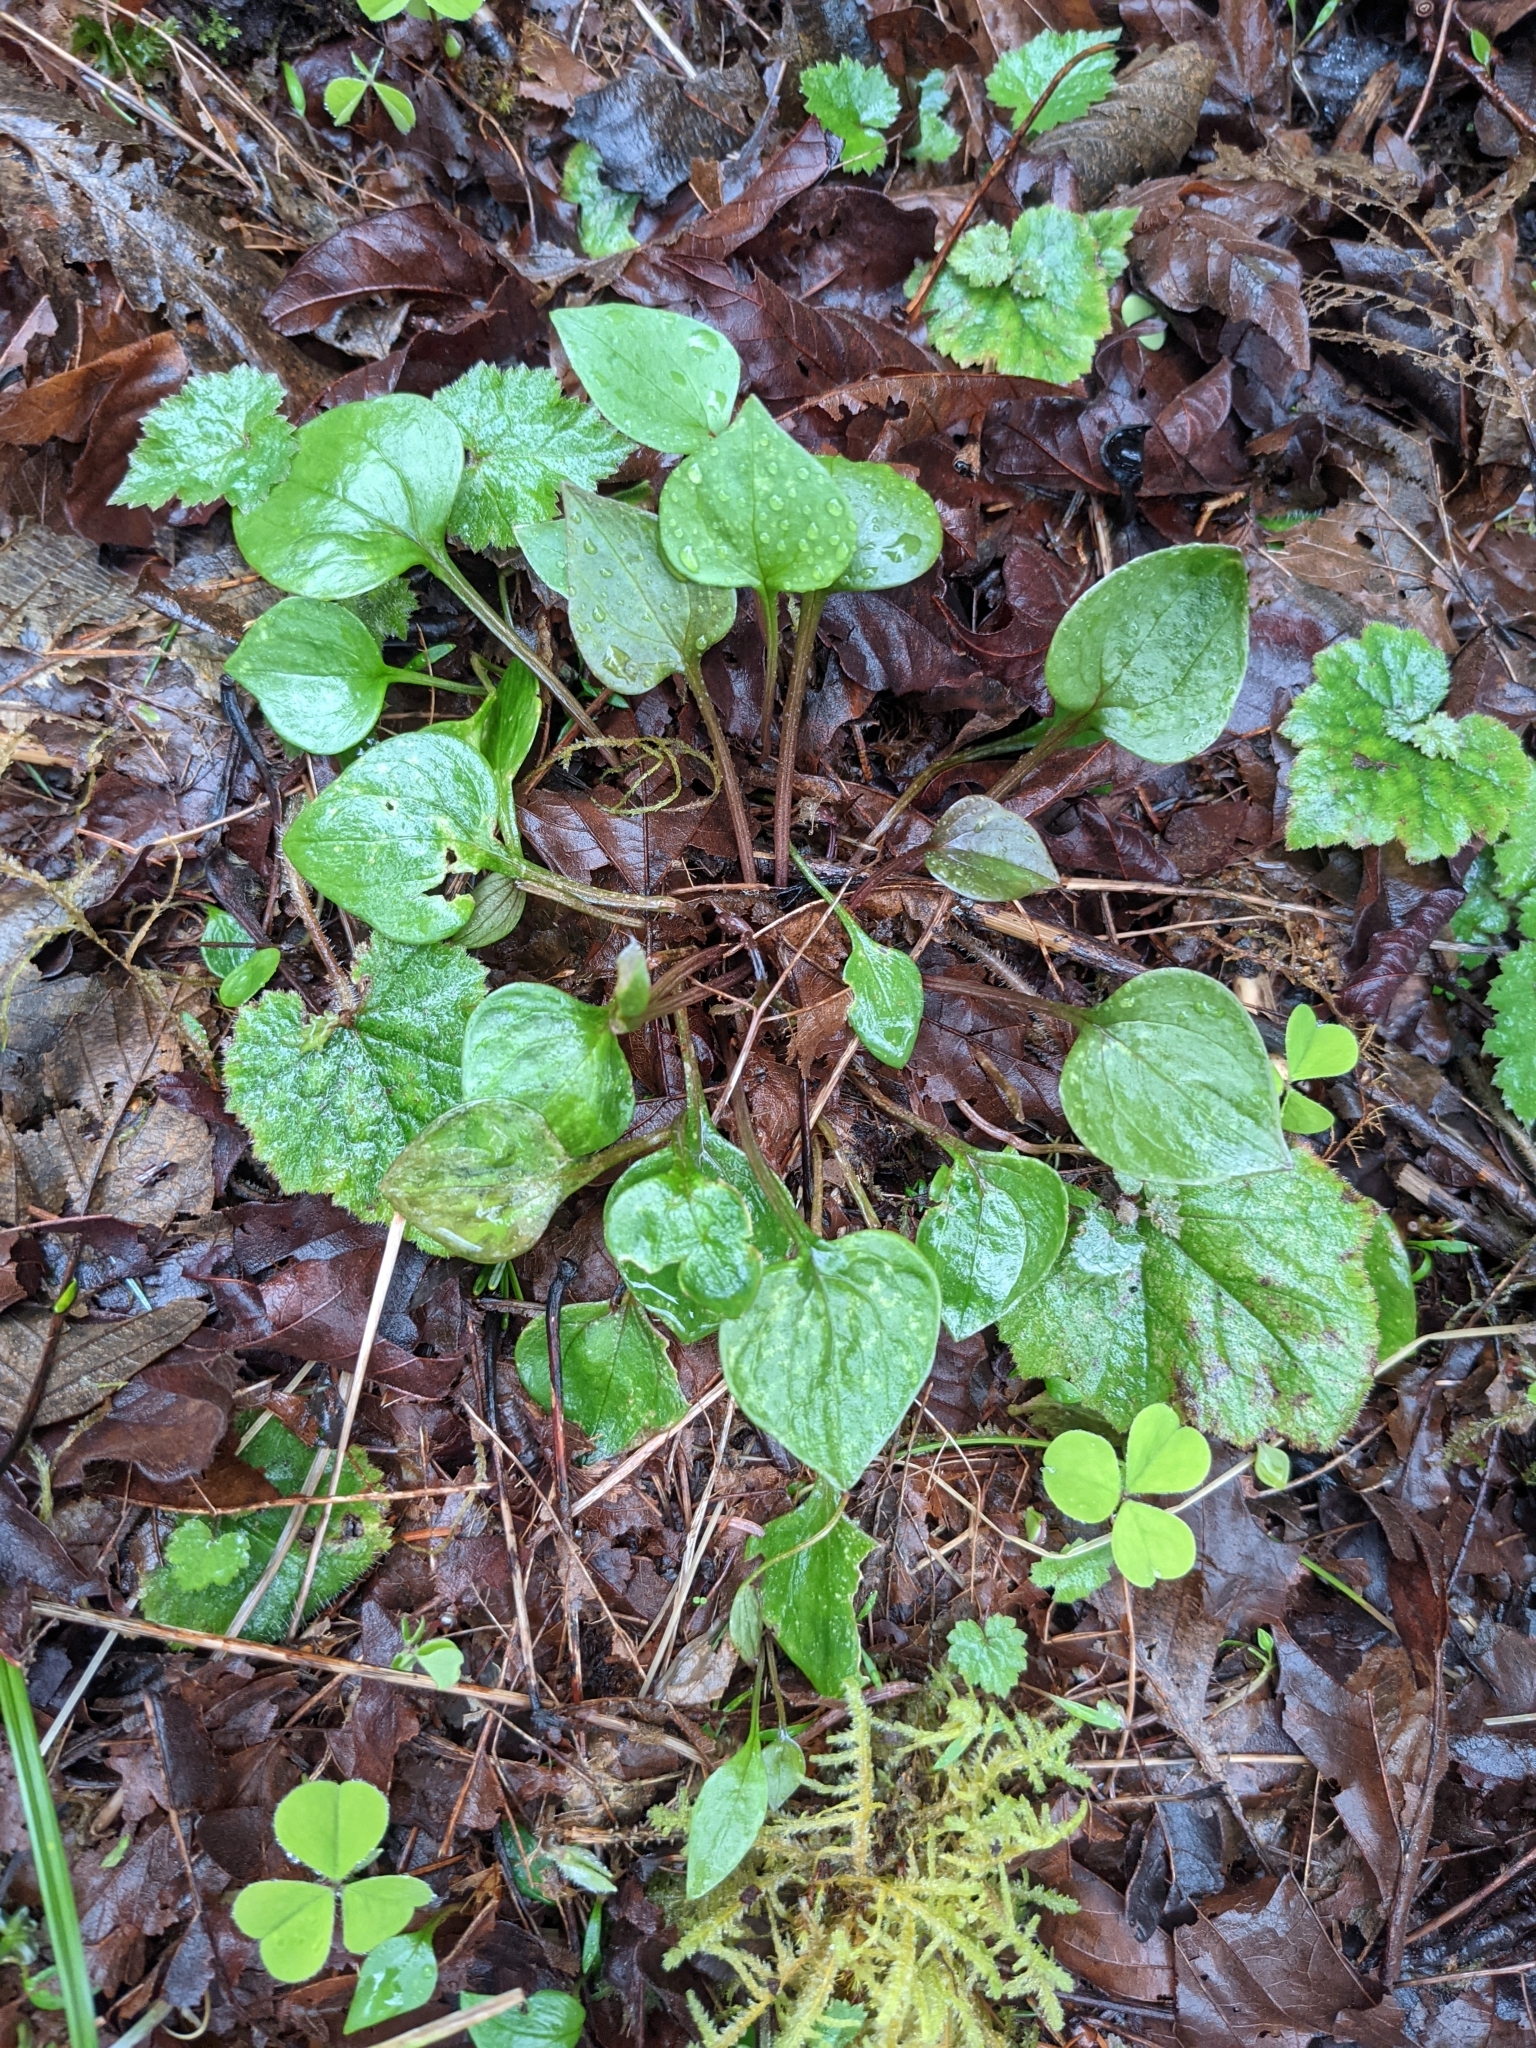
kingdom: Plantae
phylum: Tracheophyta
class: Magnoliopsida
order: Caryophyllales
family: Montiaceae
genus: Claytonia
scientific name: Claytonia sibirica
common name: Pink purslane
